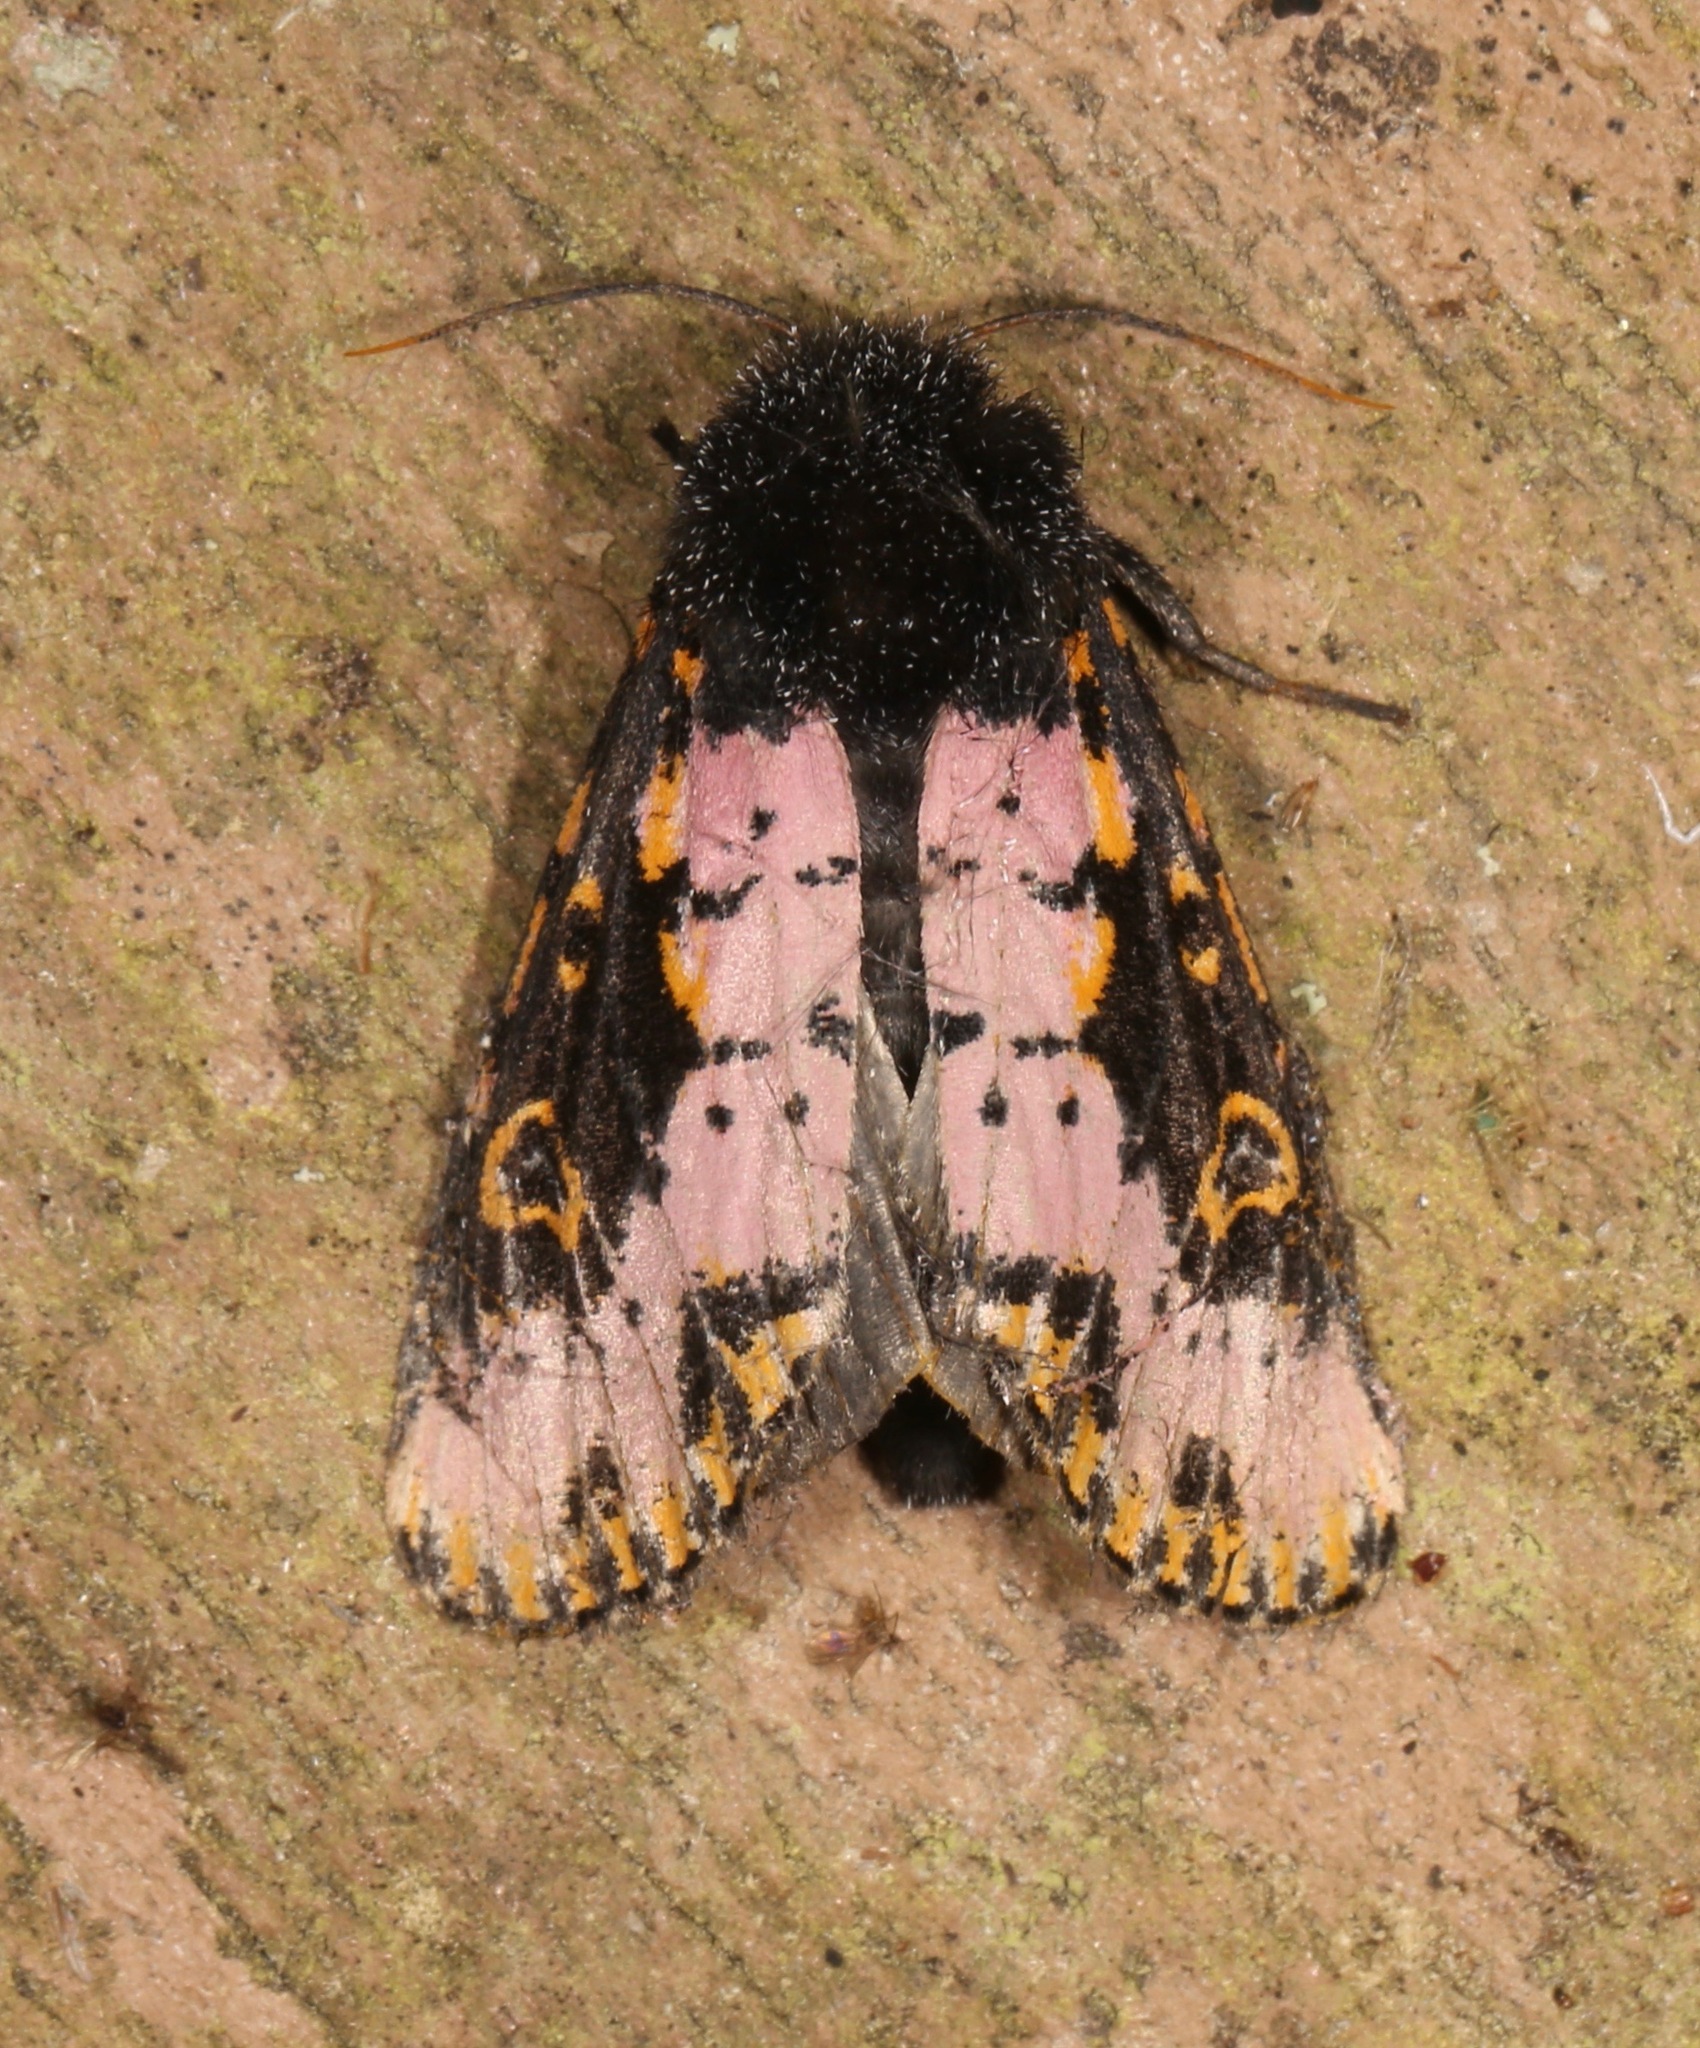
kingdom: Animalia
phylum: Arthropoda
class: Insecta
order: Lepidoptera
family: Noctuidae
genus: Xanthopastis
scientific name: Xanthopastis regnatrix
